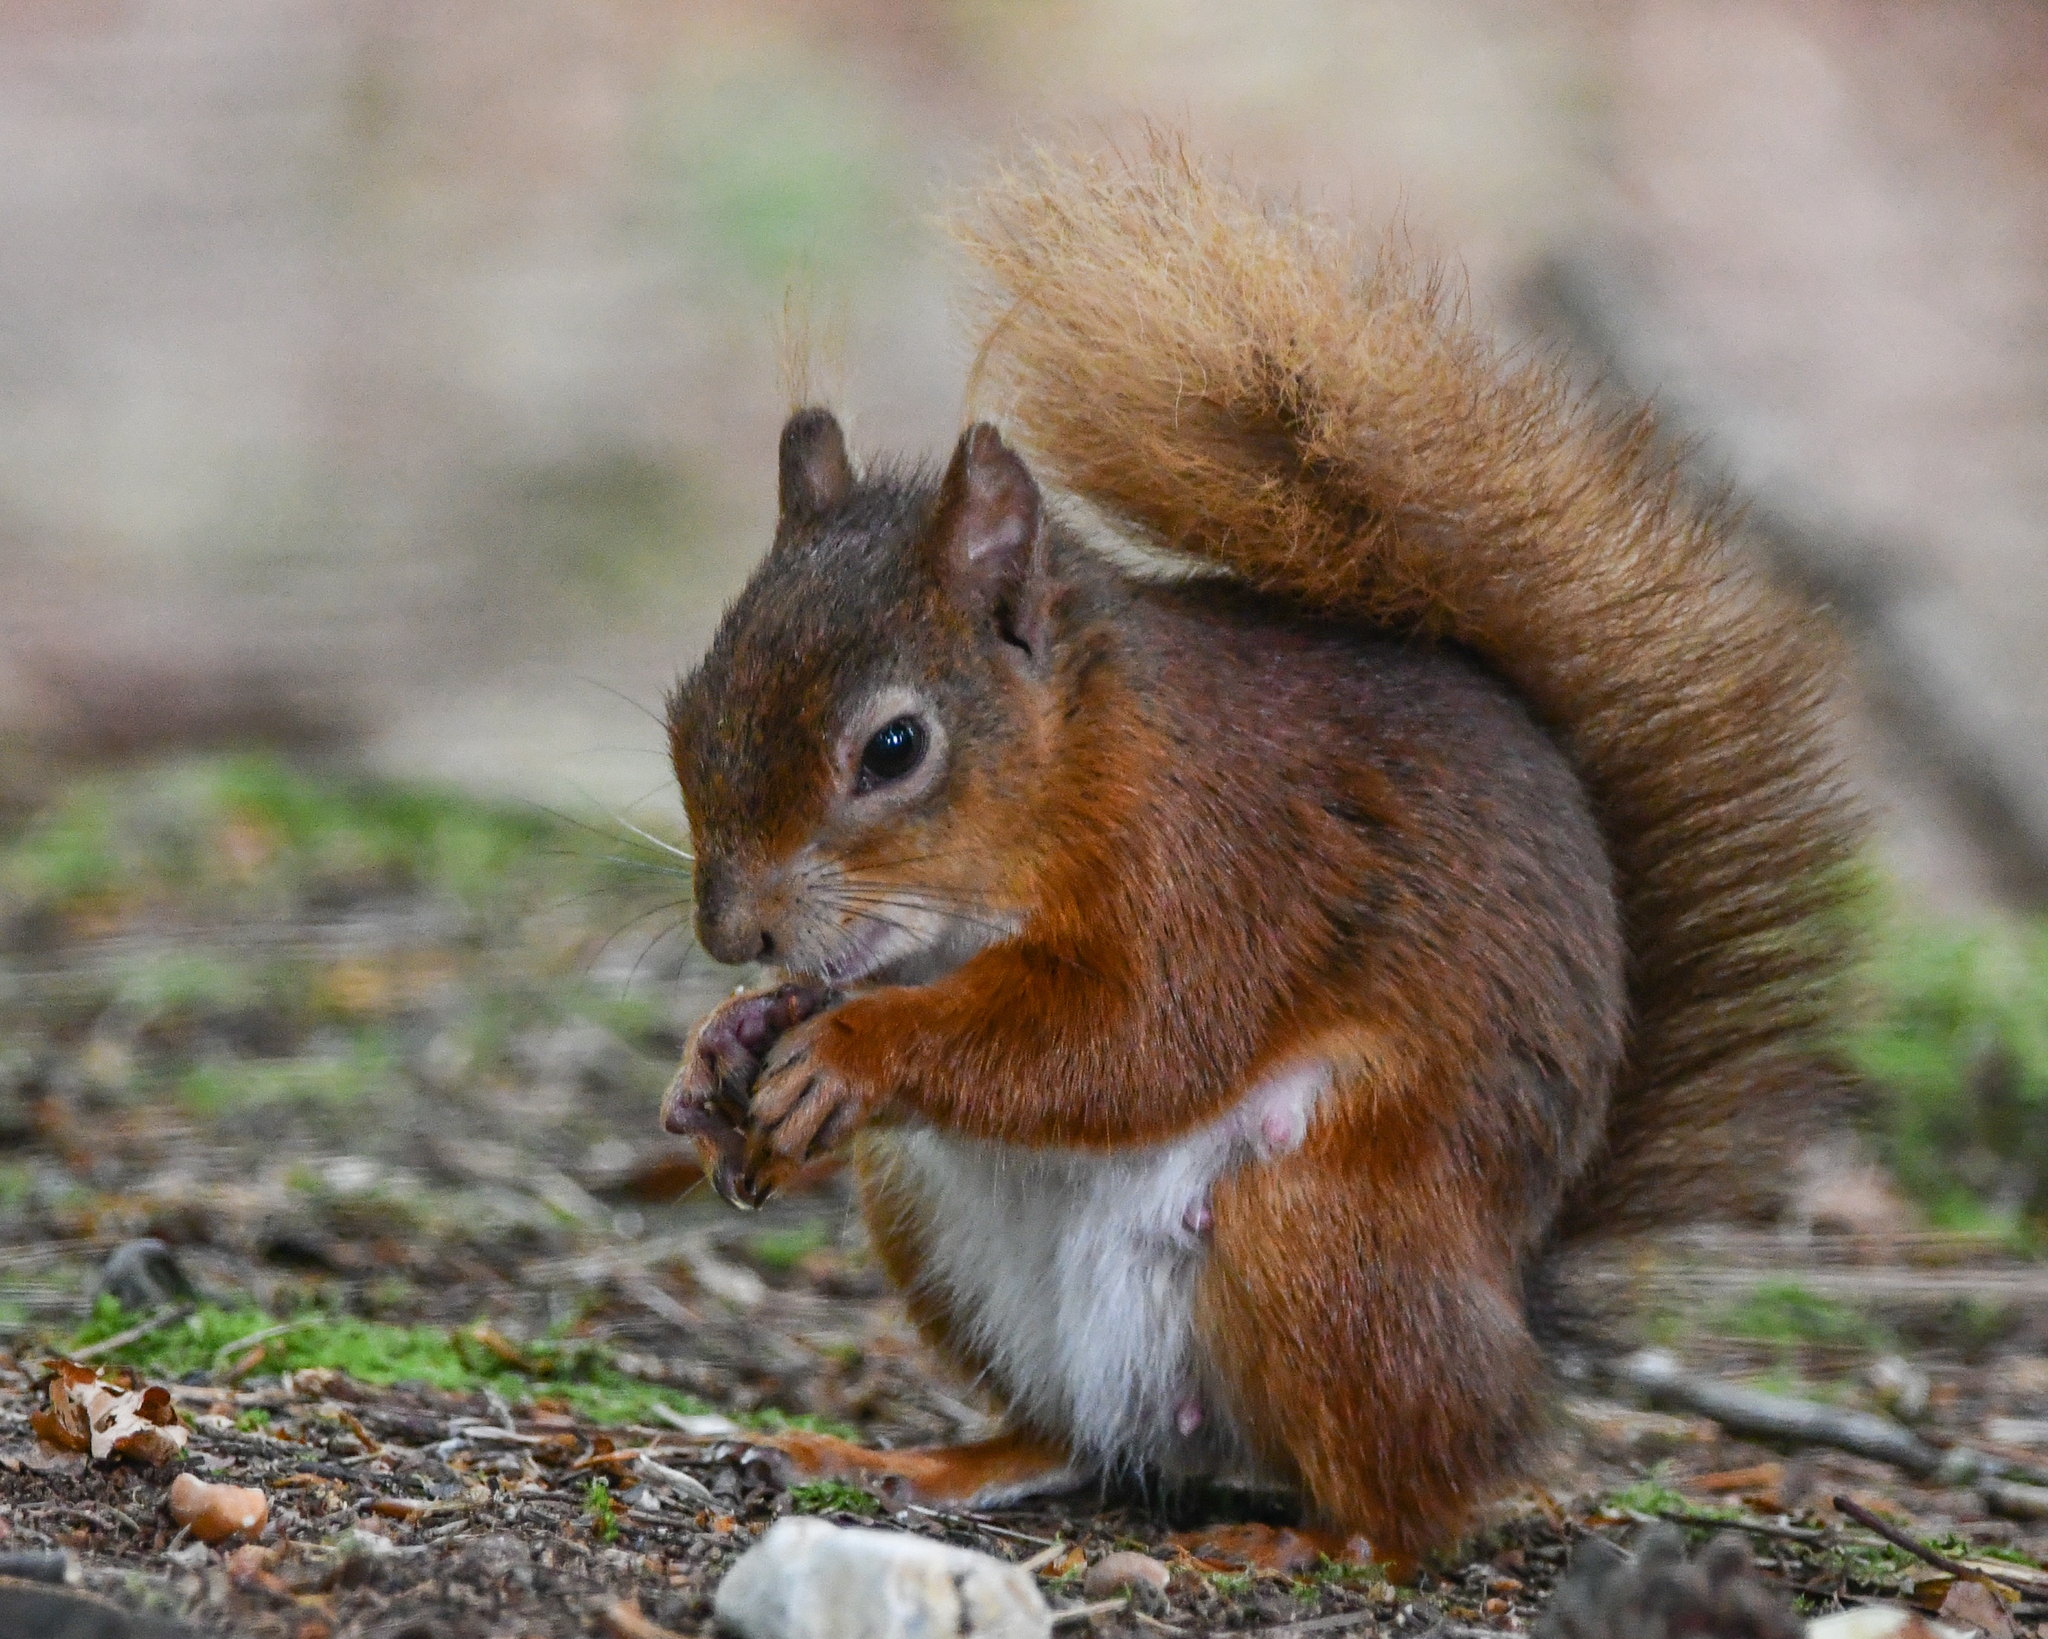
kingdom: Animalia
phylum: Chordata
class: Mammalia
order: Rodentia
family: Sciuridae
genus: Sciurus
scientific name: Sciurus vulgaris
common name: Eurasian red squirrel
